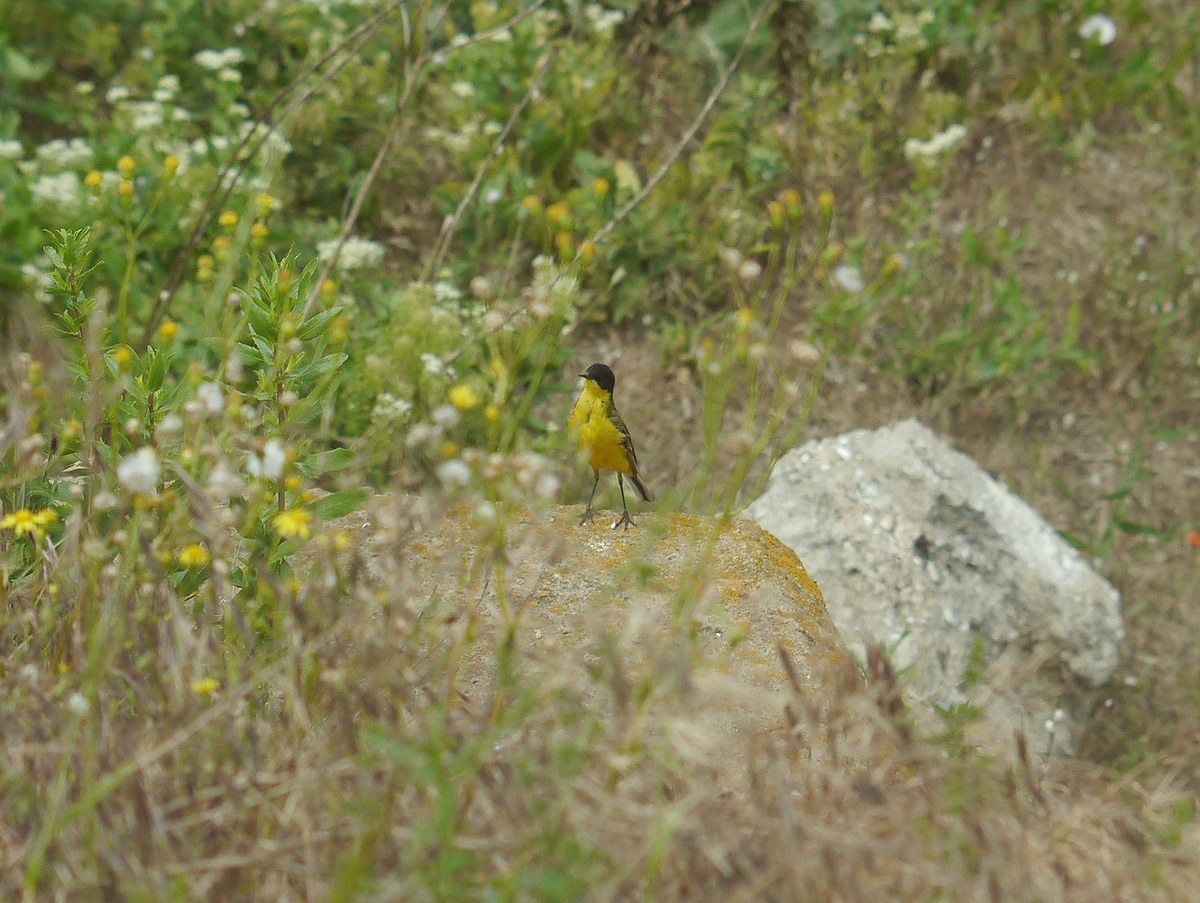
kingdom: Animalia
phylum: Chordata
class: Aves
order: Passeriformes
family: Motacillidae
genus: Motacilla
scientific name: Motacilla flava
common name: Western yellow wagtail
